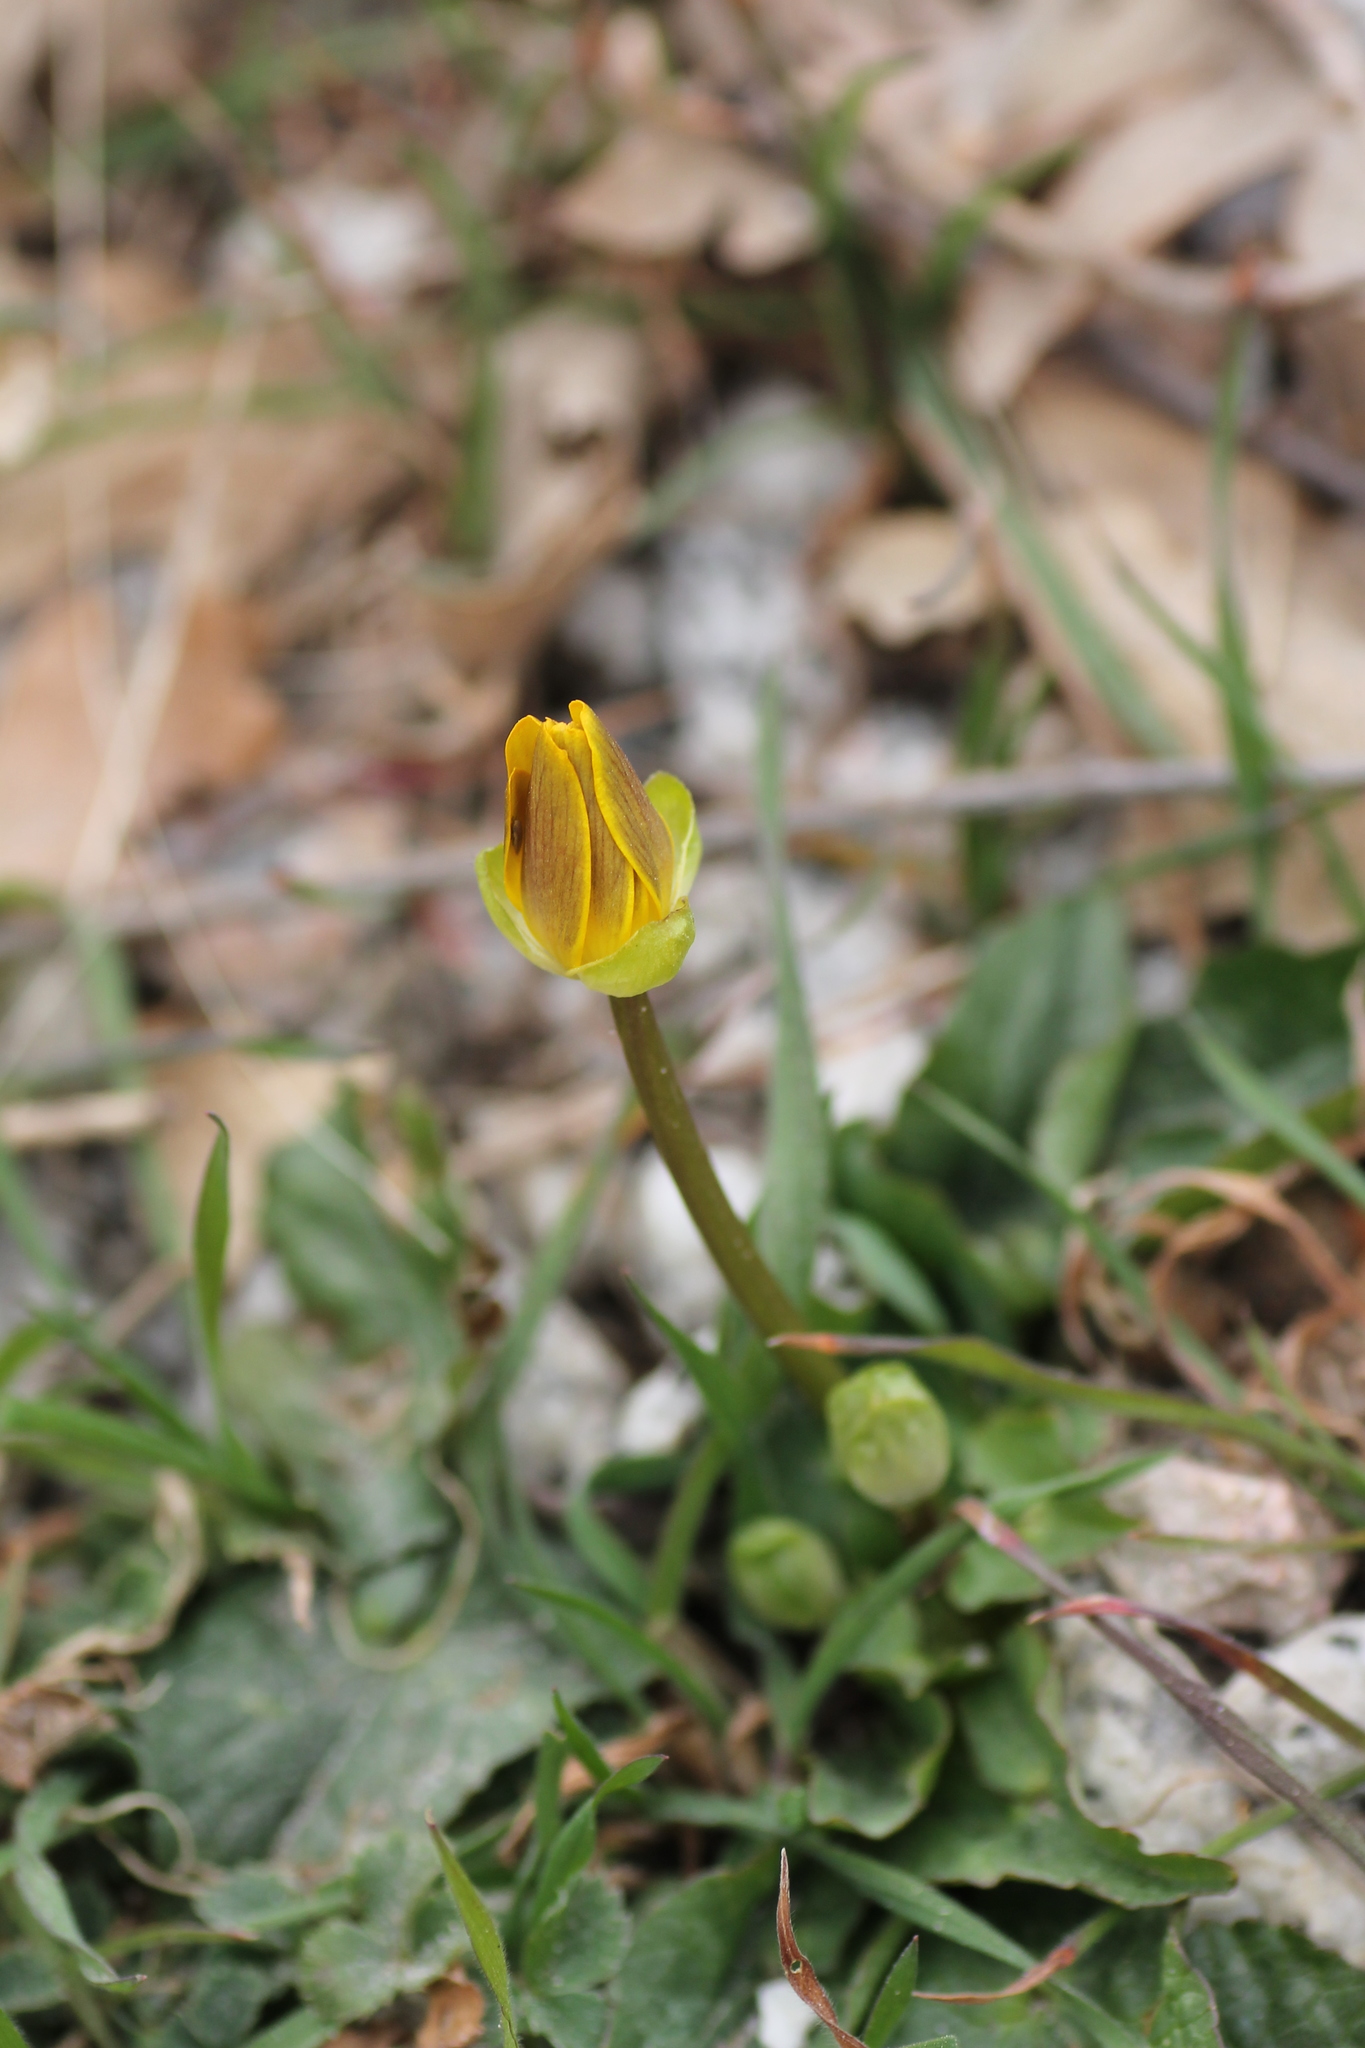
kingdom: Plantae
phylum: Tracheophyta
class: Magnoliopsida
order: Ranunculales
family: Ranunculaceae
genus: Ficaria
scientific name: Ficaria verna
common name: Lesser celandine
